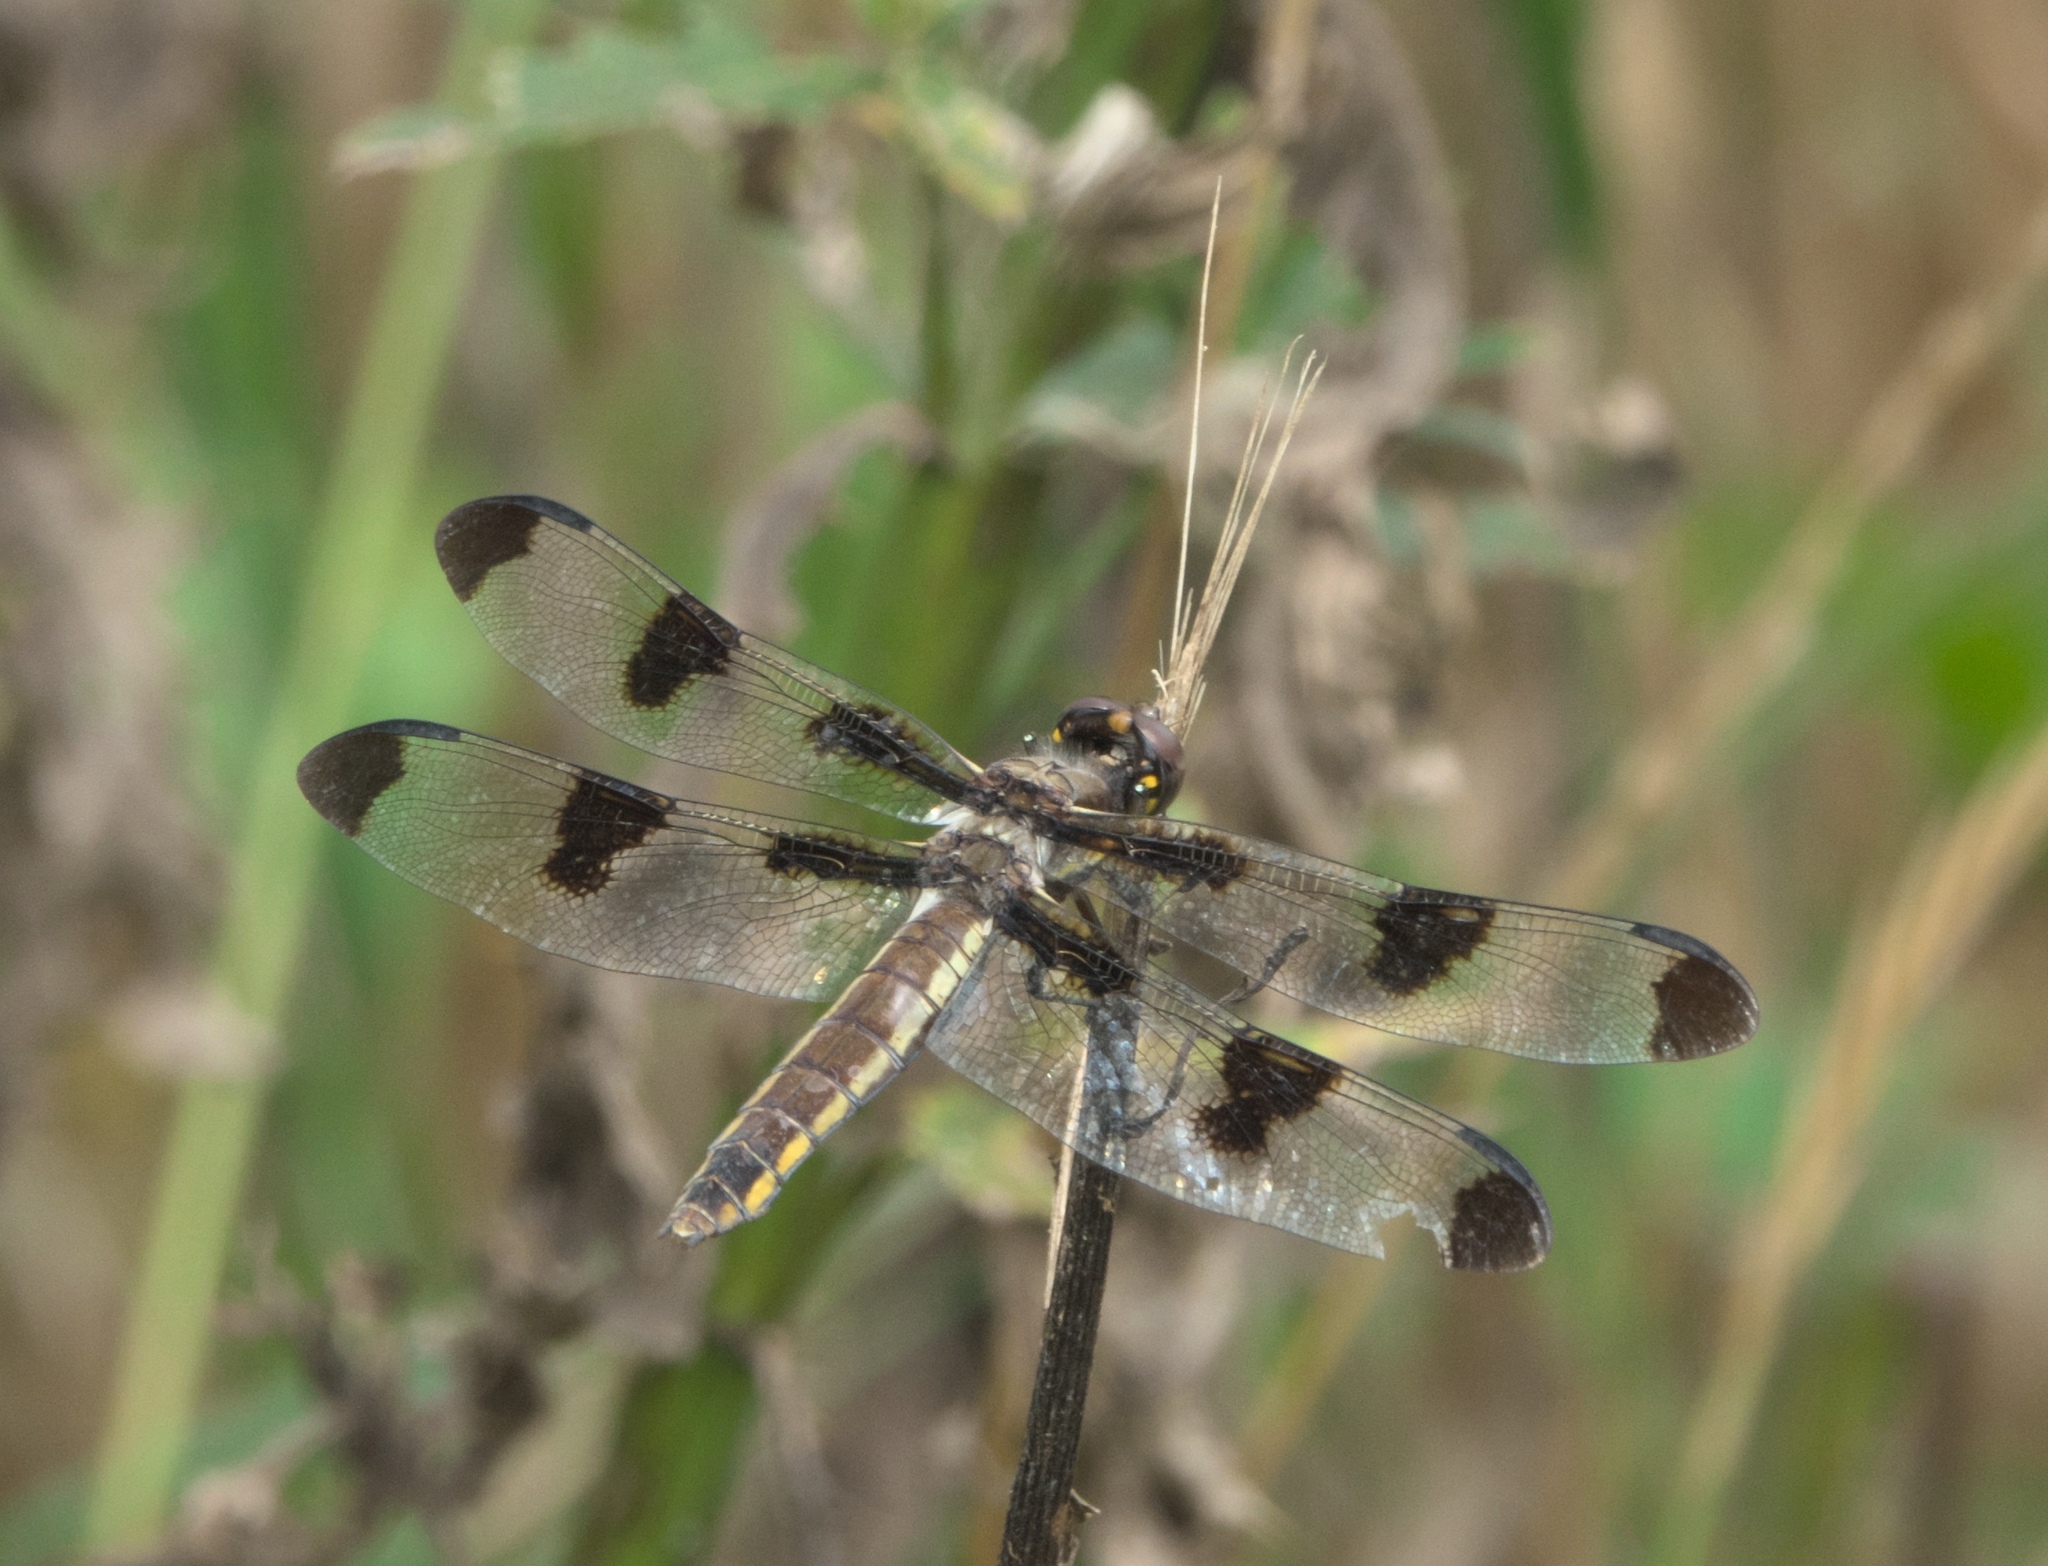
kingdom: Animalia
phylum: Arthropoda
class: Insecta
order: Odonata
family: Libellulidae
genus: Libellula
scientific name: Libellula pulchella
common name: Twelve-spotted skimmer
